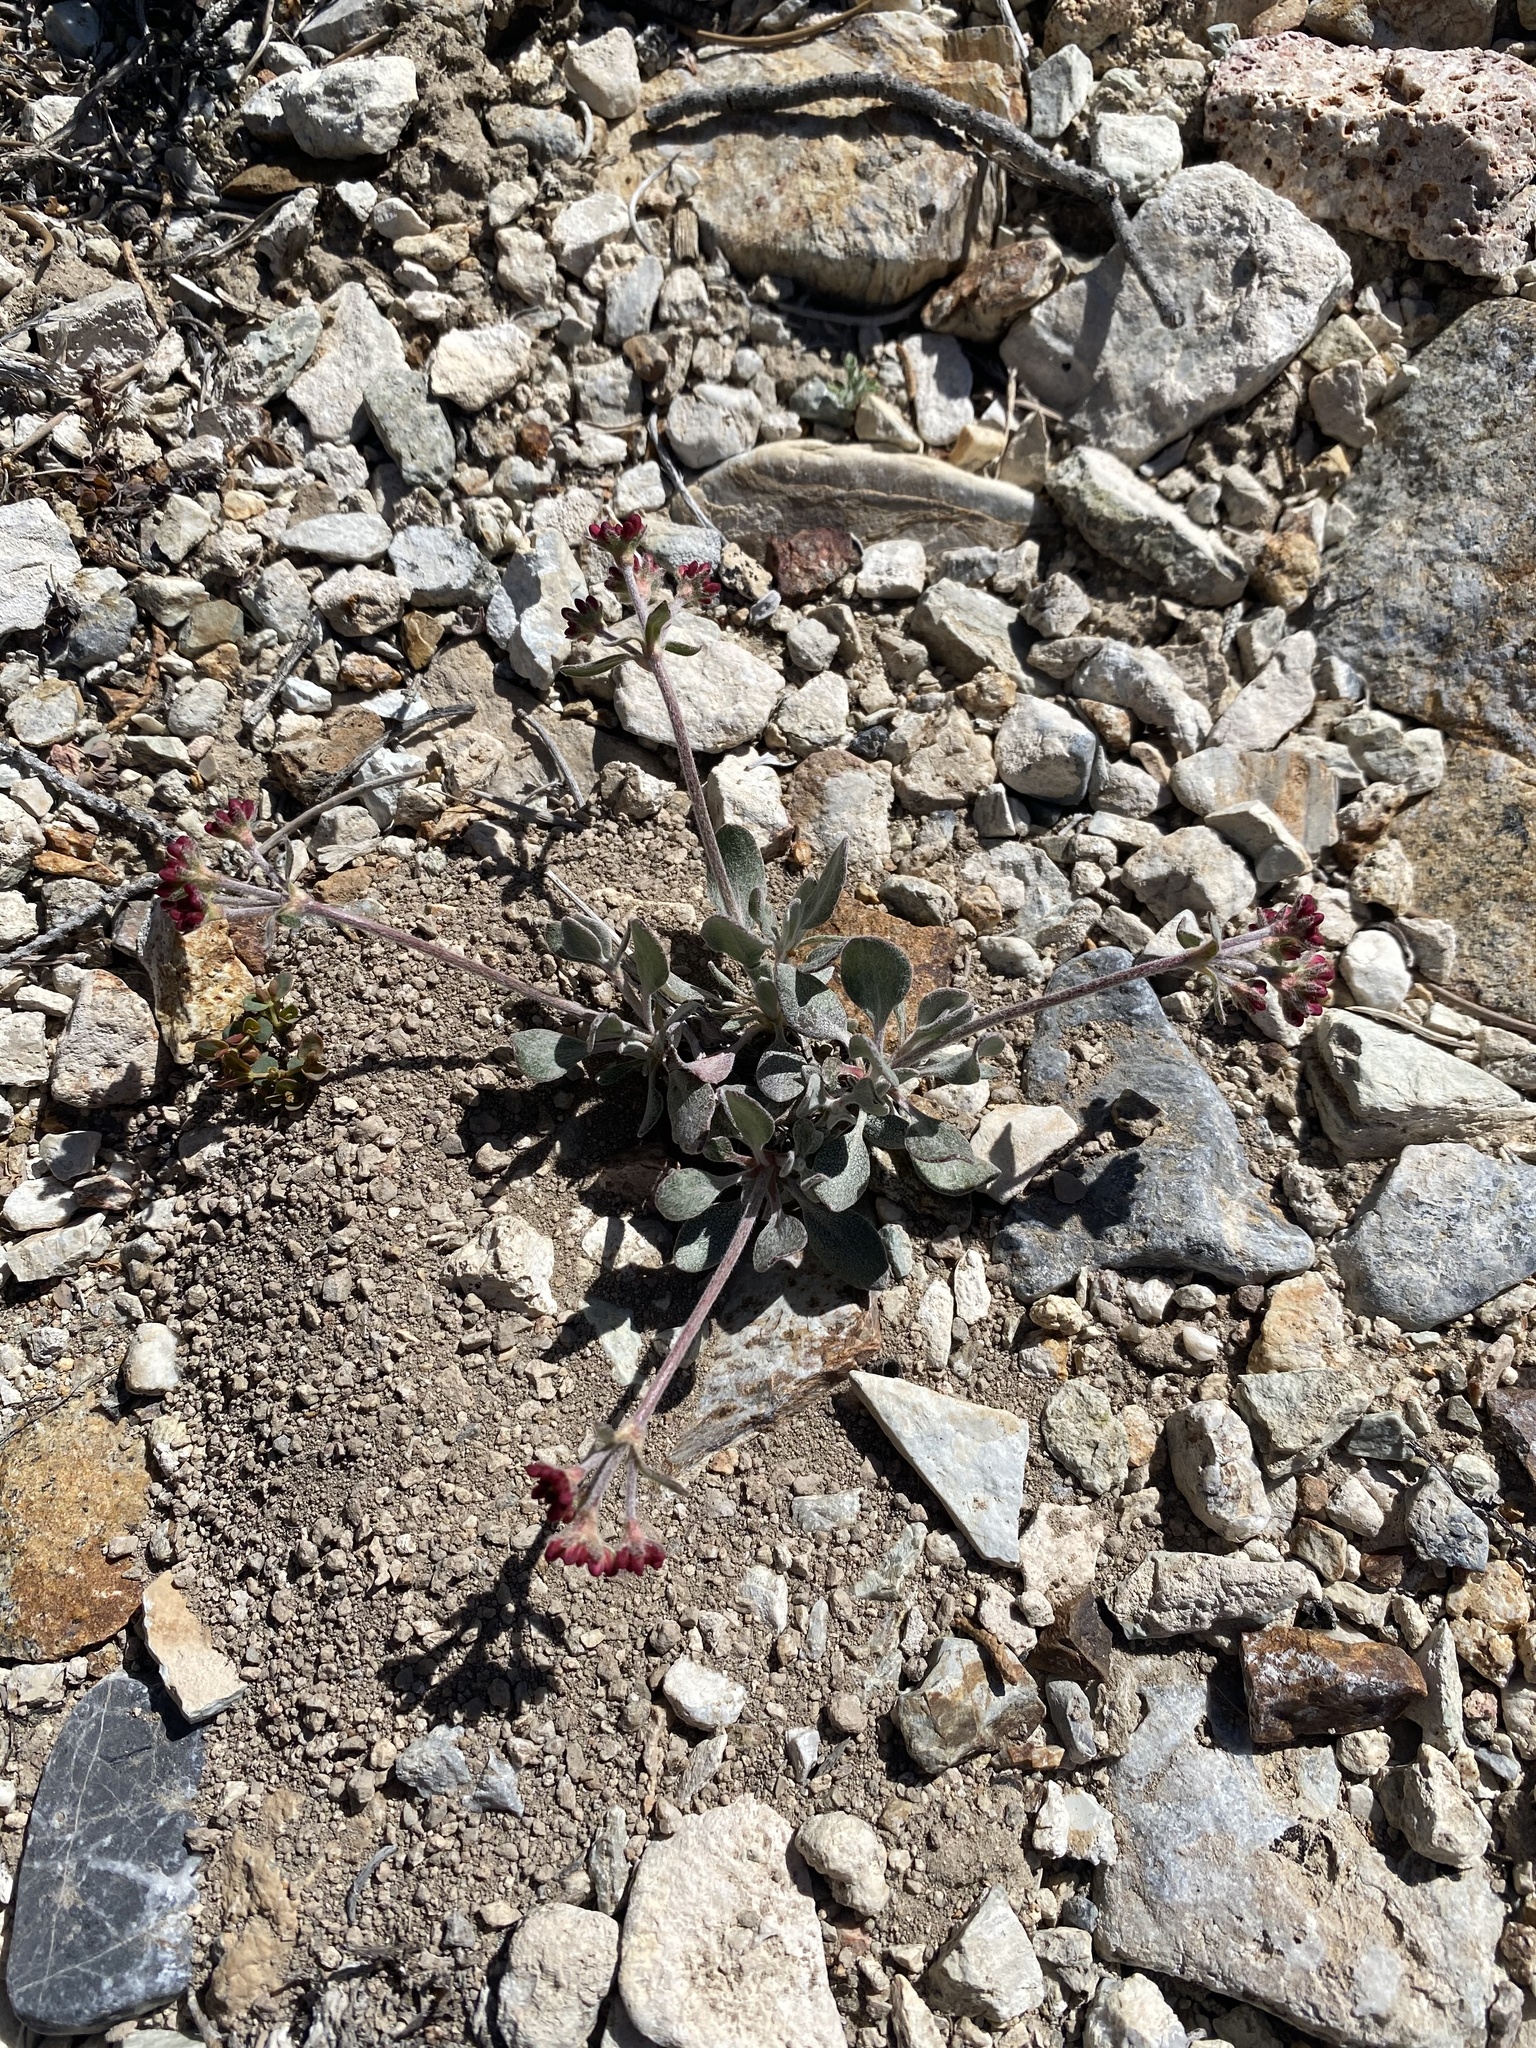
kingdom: Plantae
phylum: Tracheophyta
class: Magnoliopsida
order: Caryophyllales
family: Polygonaceae
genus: Eriogonum
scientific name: Eriogonum umbellatum
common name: Sulfur-buckwheat
